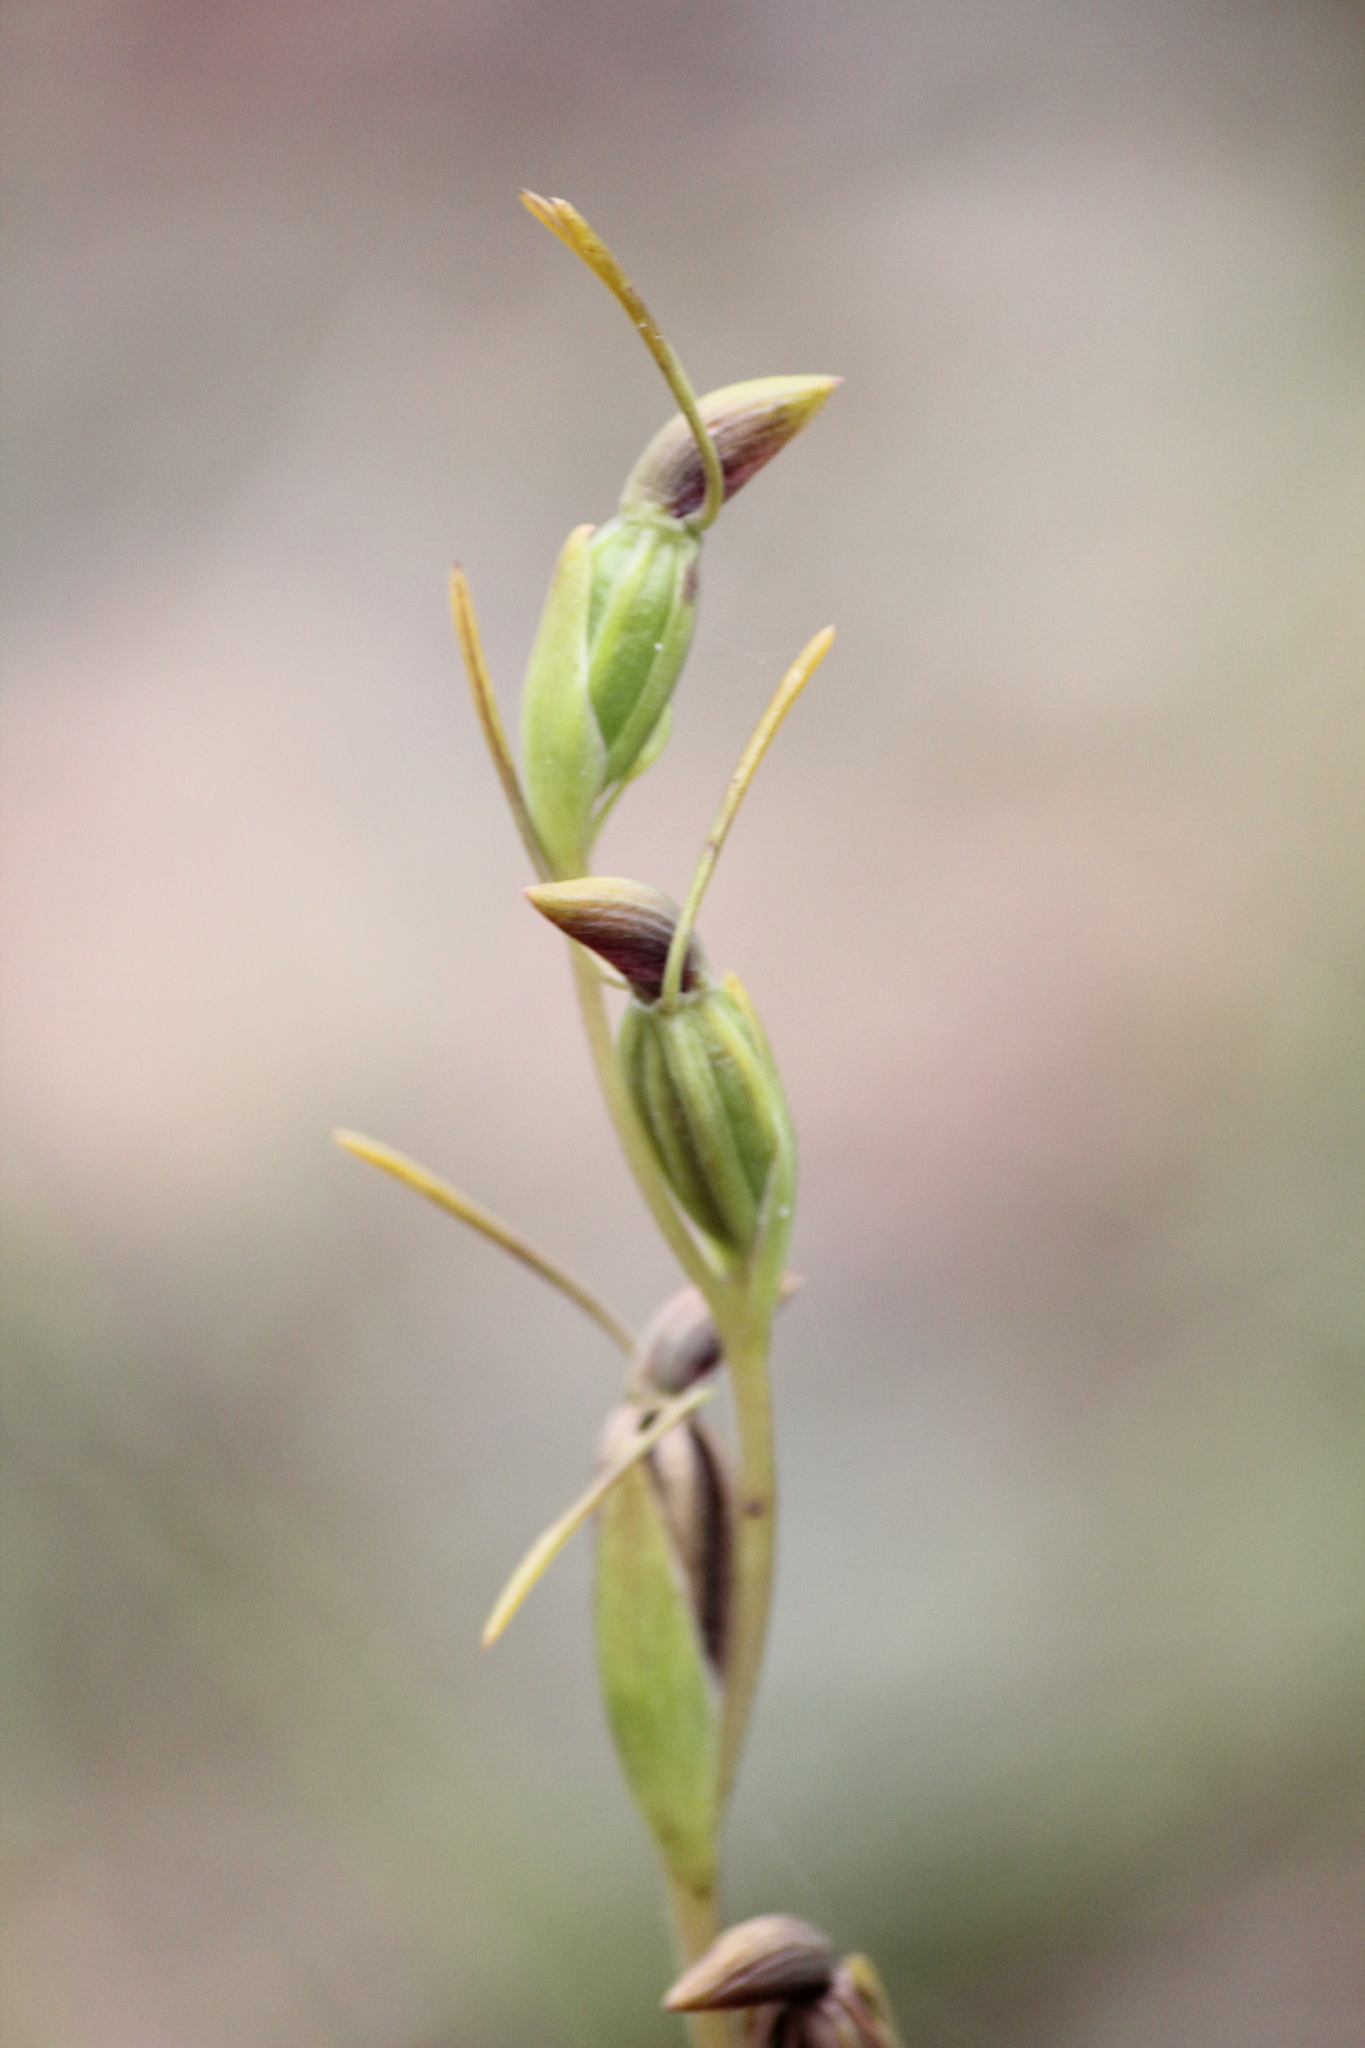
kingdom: Plantae
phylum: Tracheophyta
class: Liliopsida
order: Asparagales
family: Orchidaceae
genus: Orthoceras
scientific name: Orthoceras strictum
